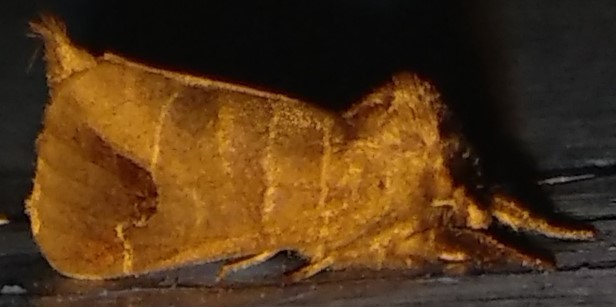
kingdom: Animalia
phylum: Arthropoda
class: Insecta
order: Lepidoptera
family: Notodontidae
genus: Clostera
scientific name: Clostera albosigma
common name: Sigmoid prominent
